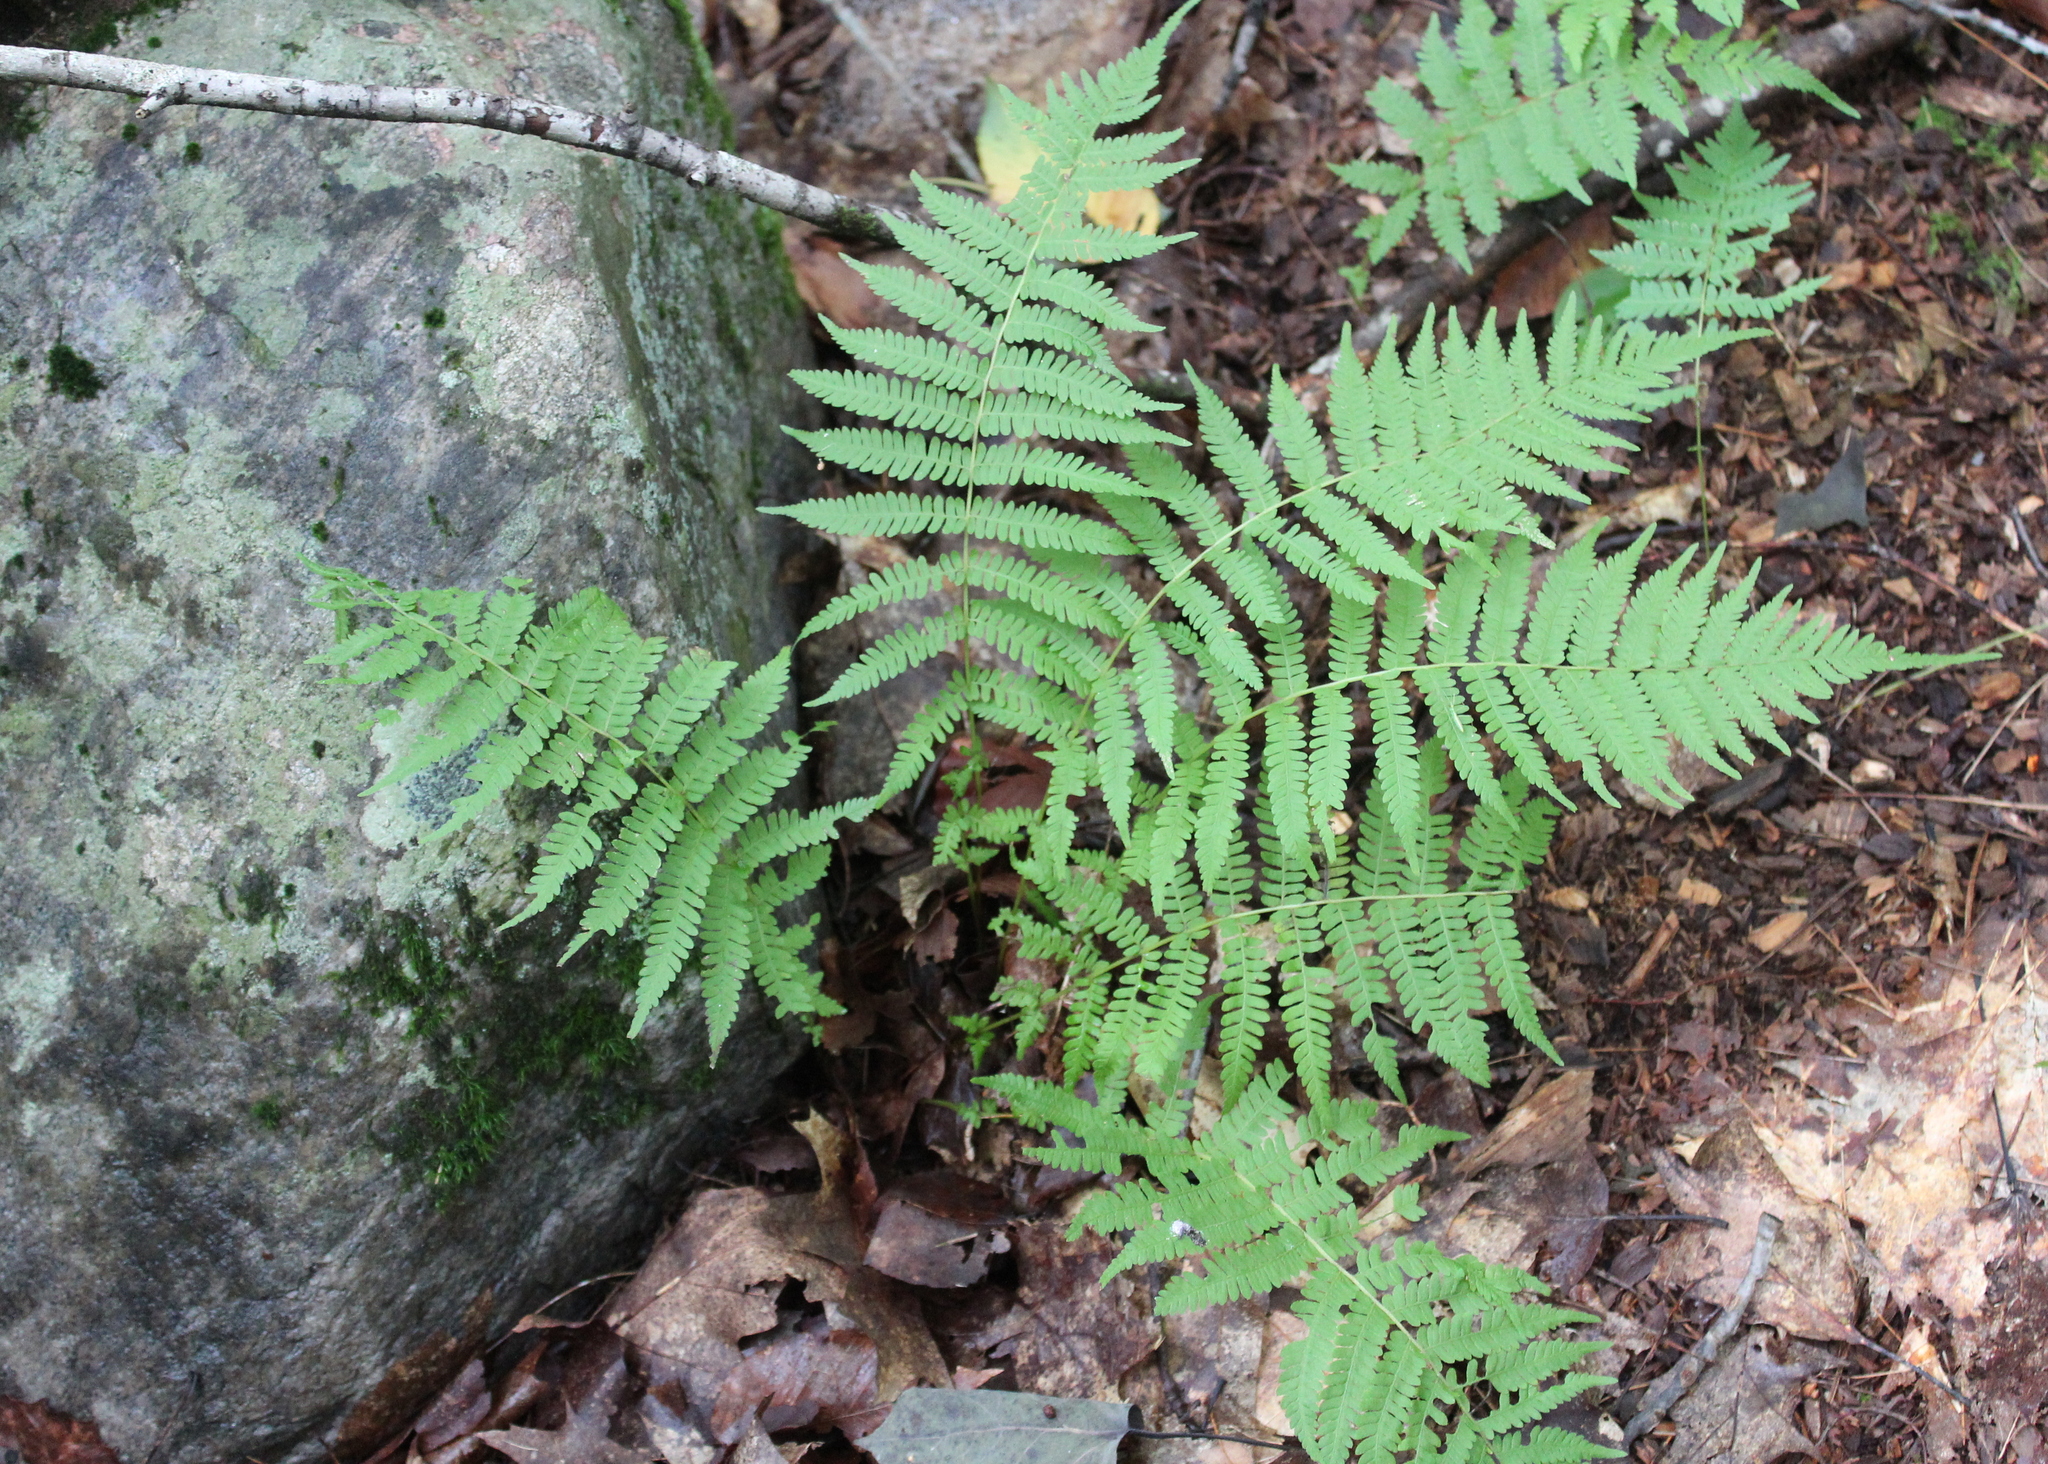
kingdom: Plantae
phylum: Tracheophyta
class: Polypodiopsida
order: Polypodiales
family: Thelypteridaceae
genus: Amauropelta
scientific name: Amauropelta noveboracensis
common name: New york fern
